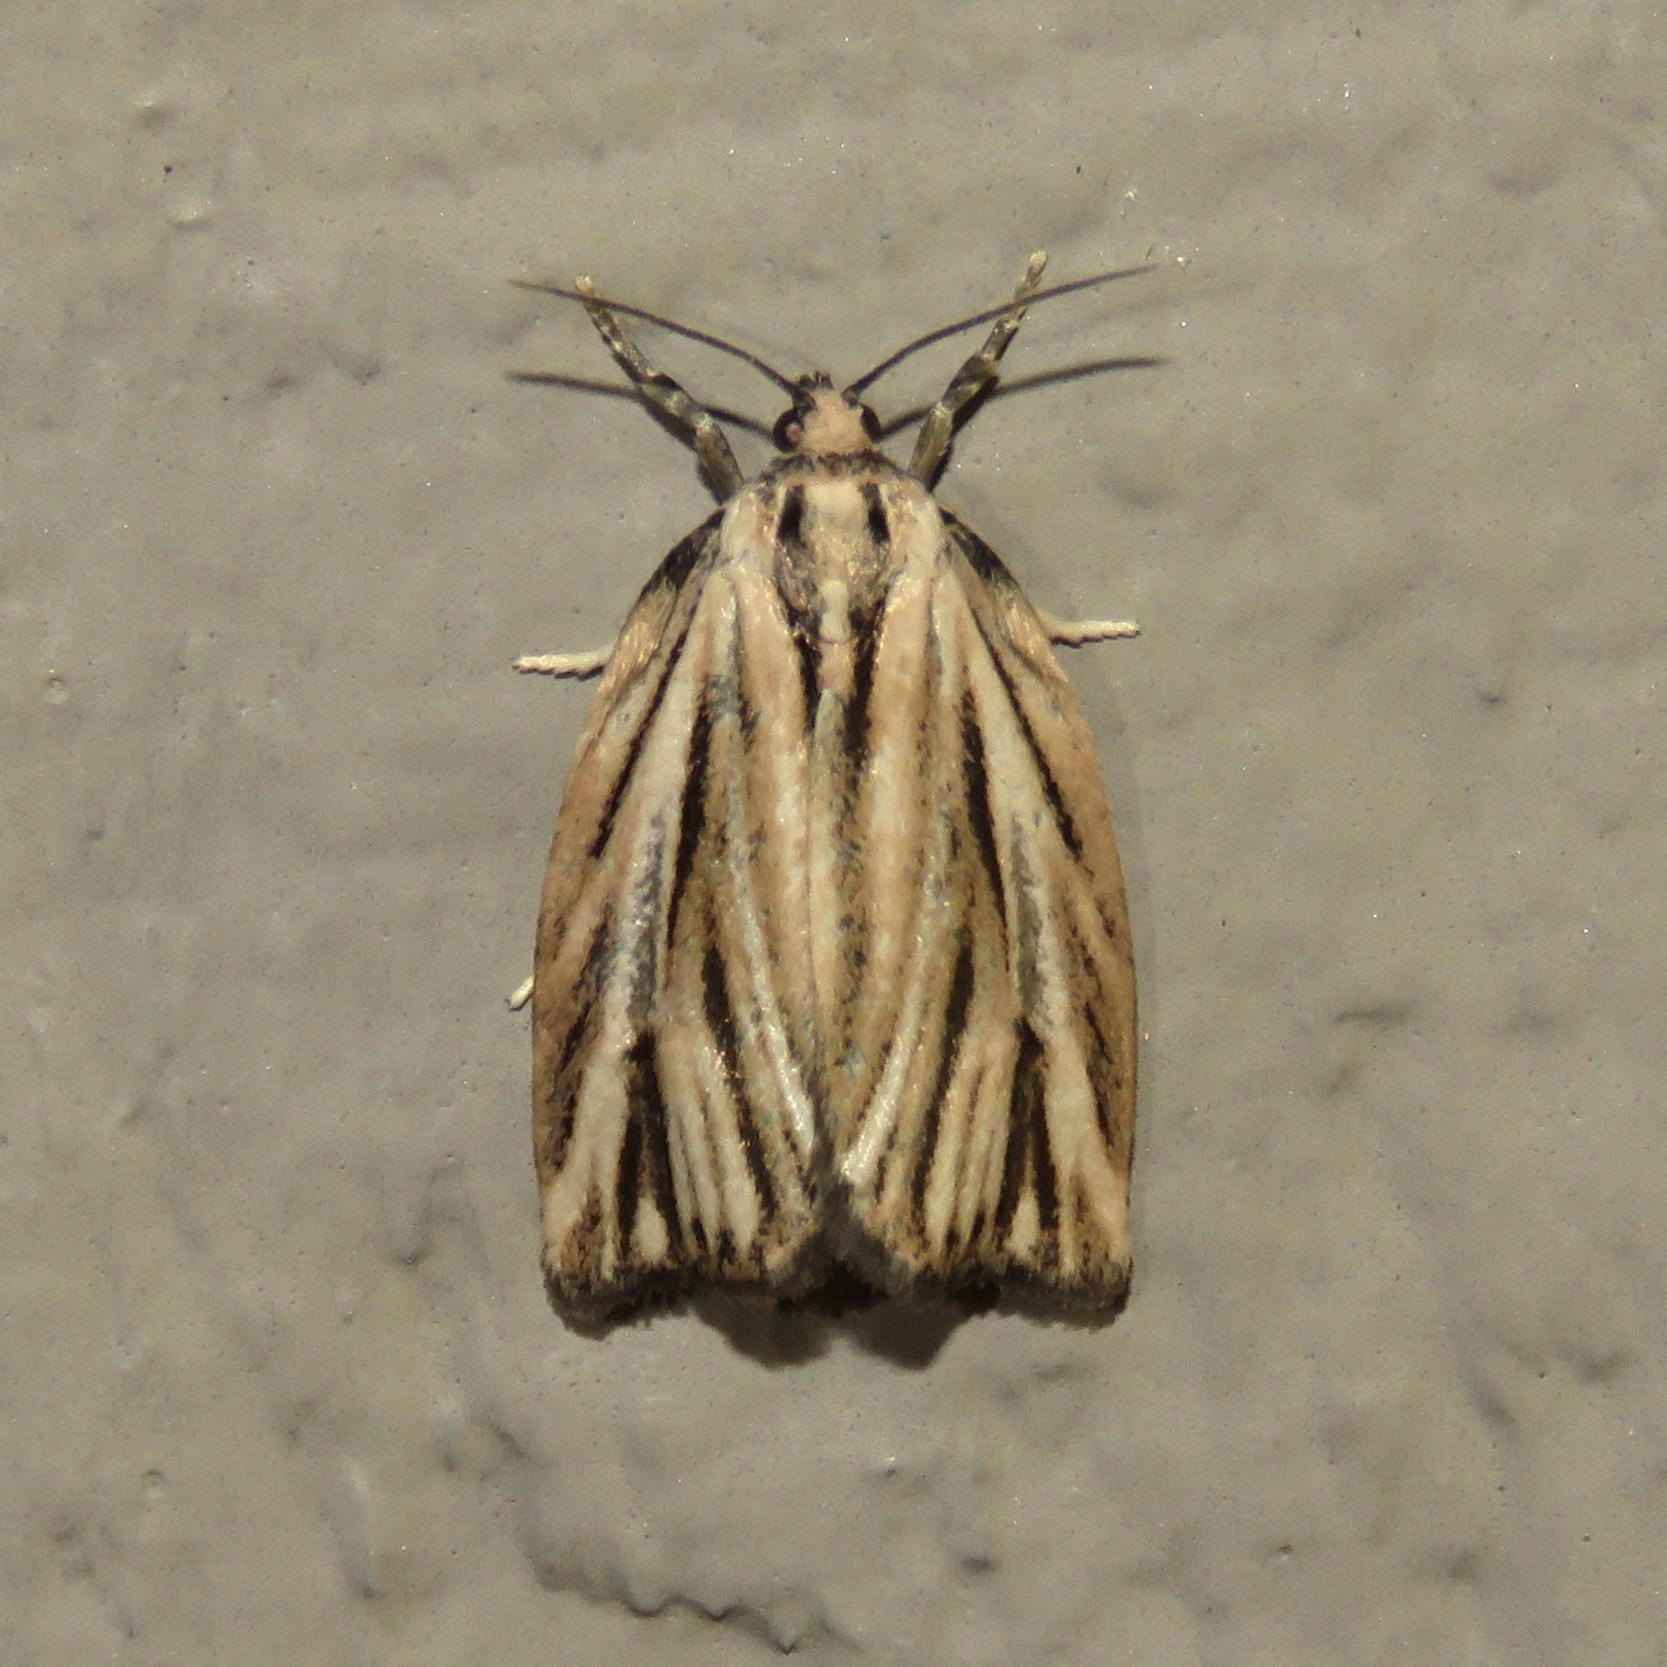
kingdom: Animalia
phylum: Arthropoda
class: Insecta
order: Lepidoptera
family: Tortricidae
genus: Archips
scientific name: Archips strianus
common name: Striated tortrix moth
